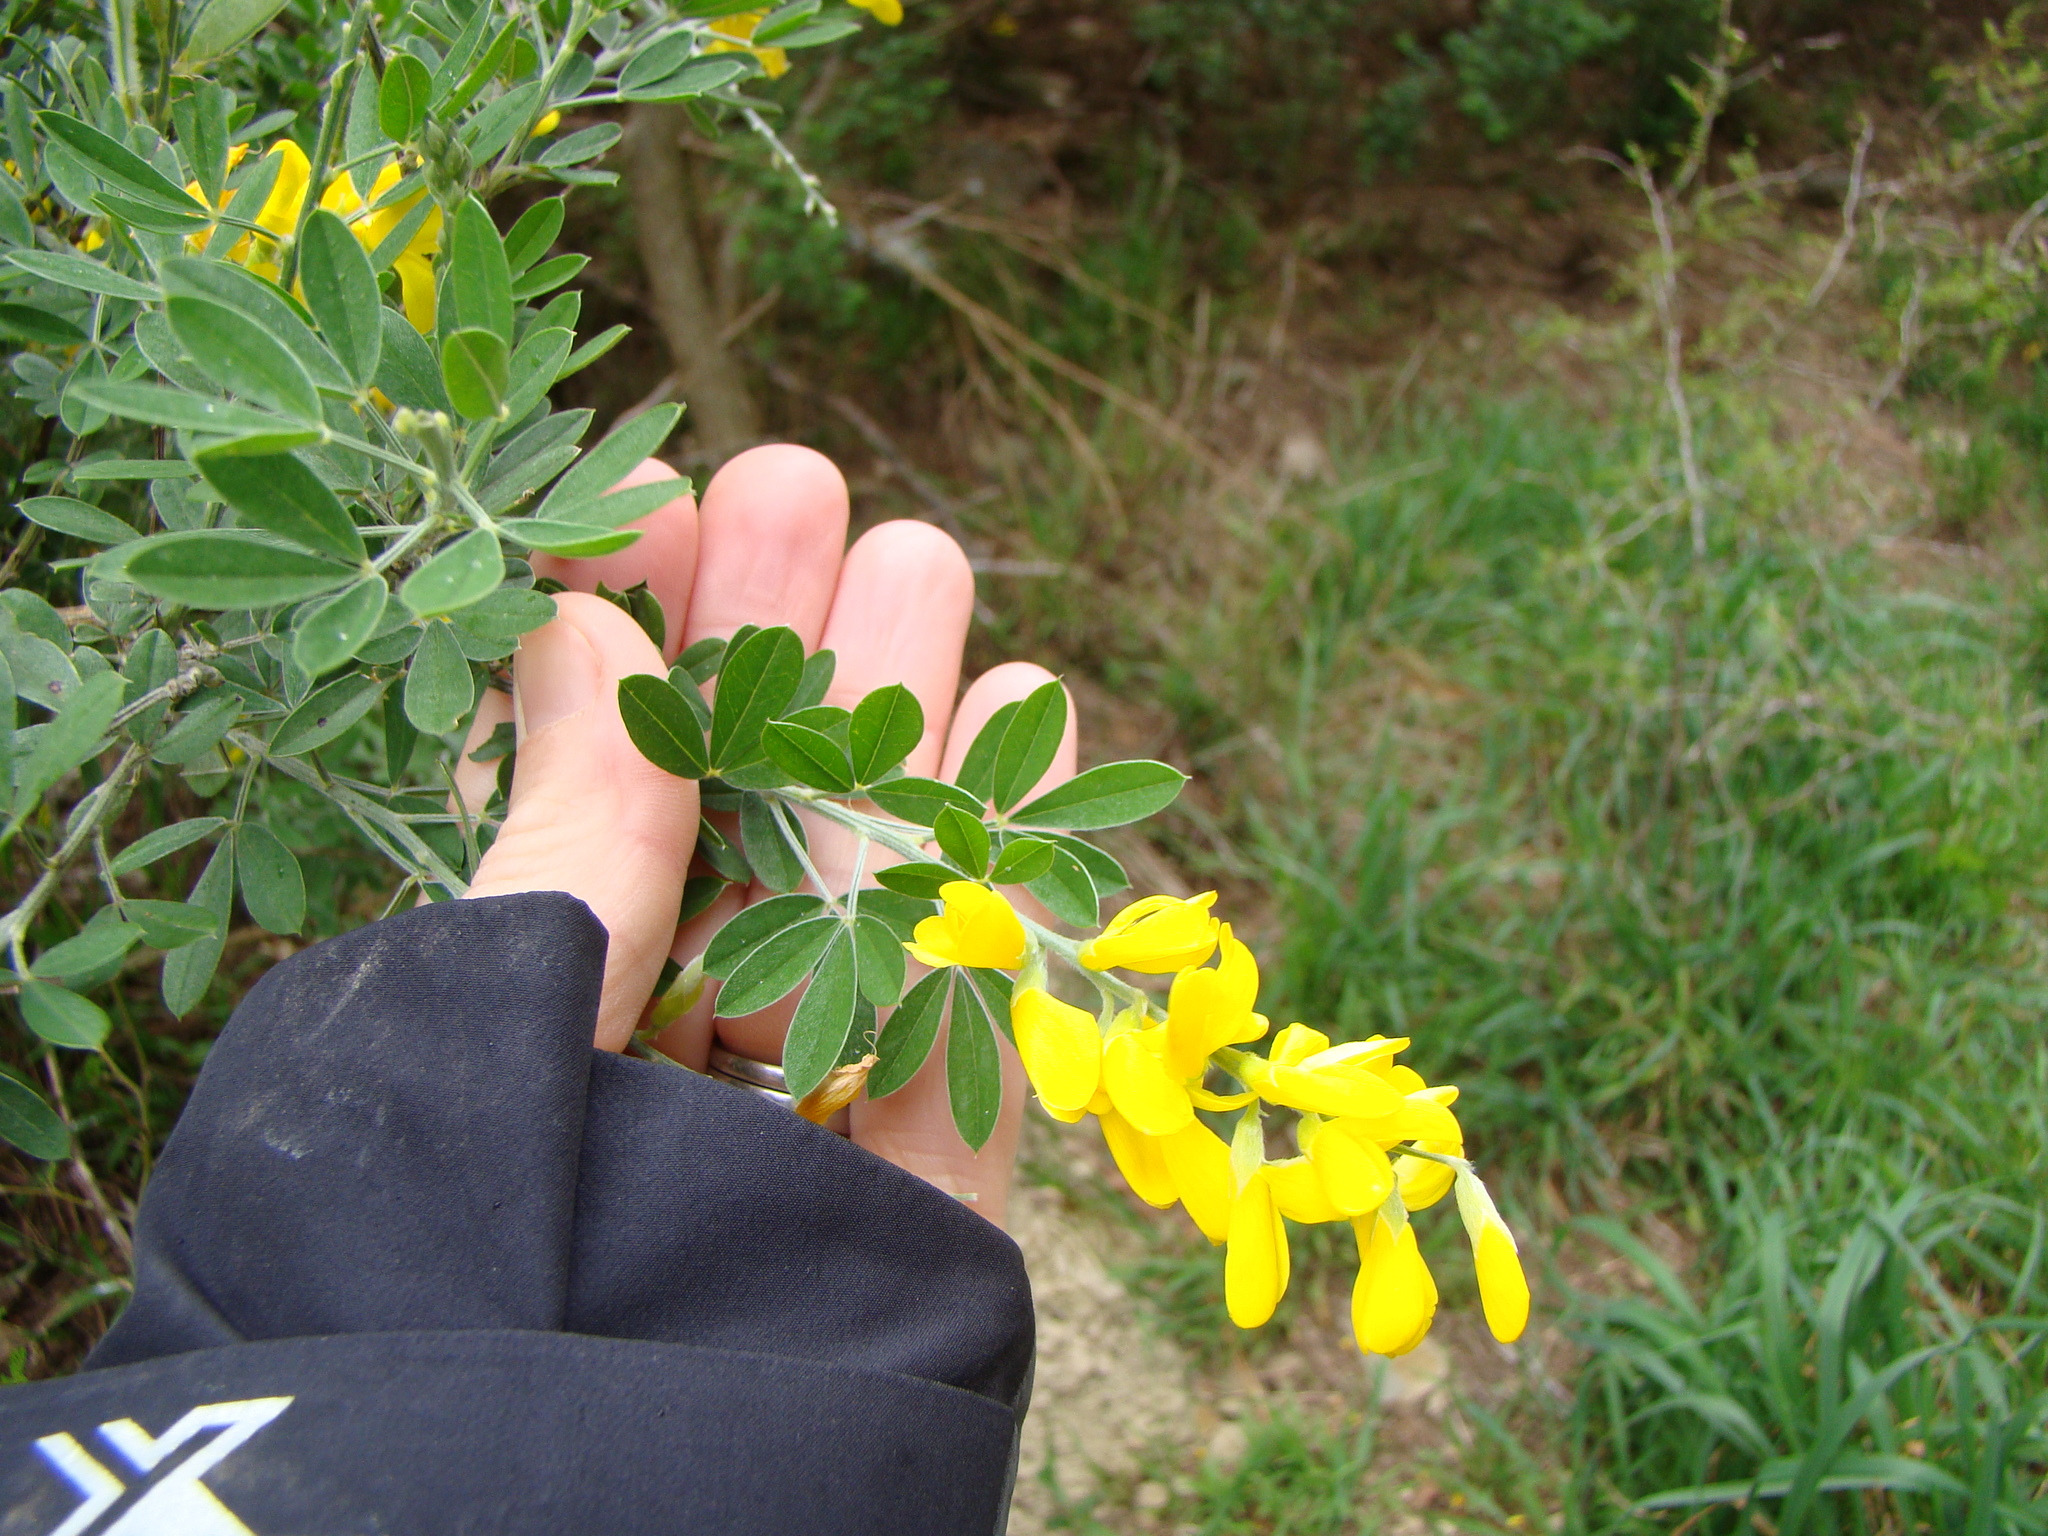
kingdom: Plantae
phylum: Tracheophyta
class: Magnoliopsida
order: Fabales
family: Fabaceae
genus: Genista
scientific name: Genista monspessulana
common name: Montpellier broom
